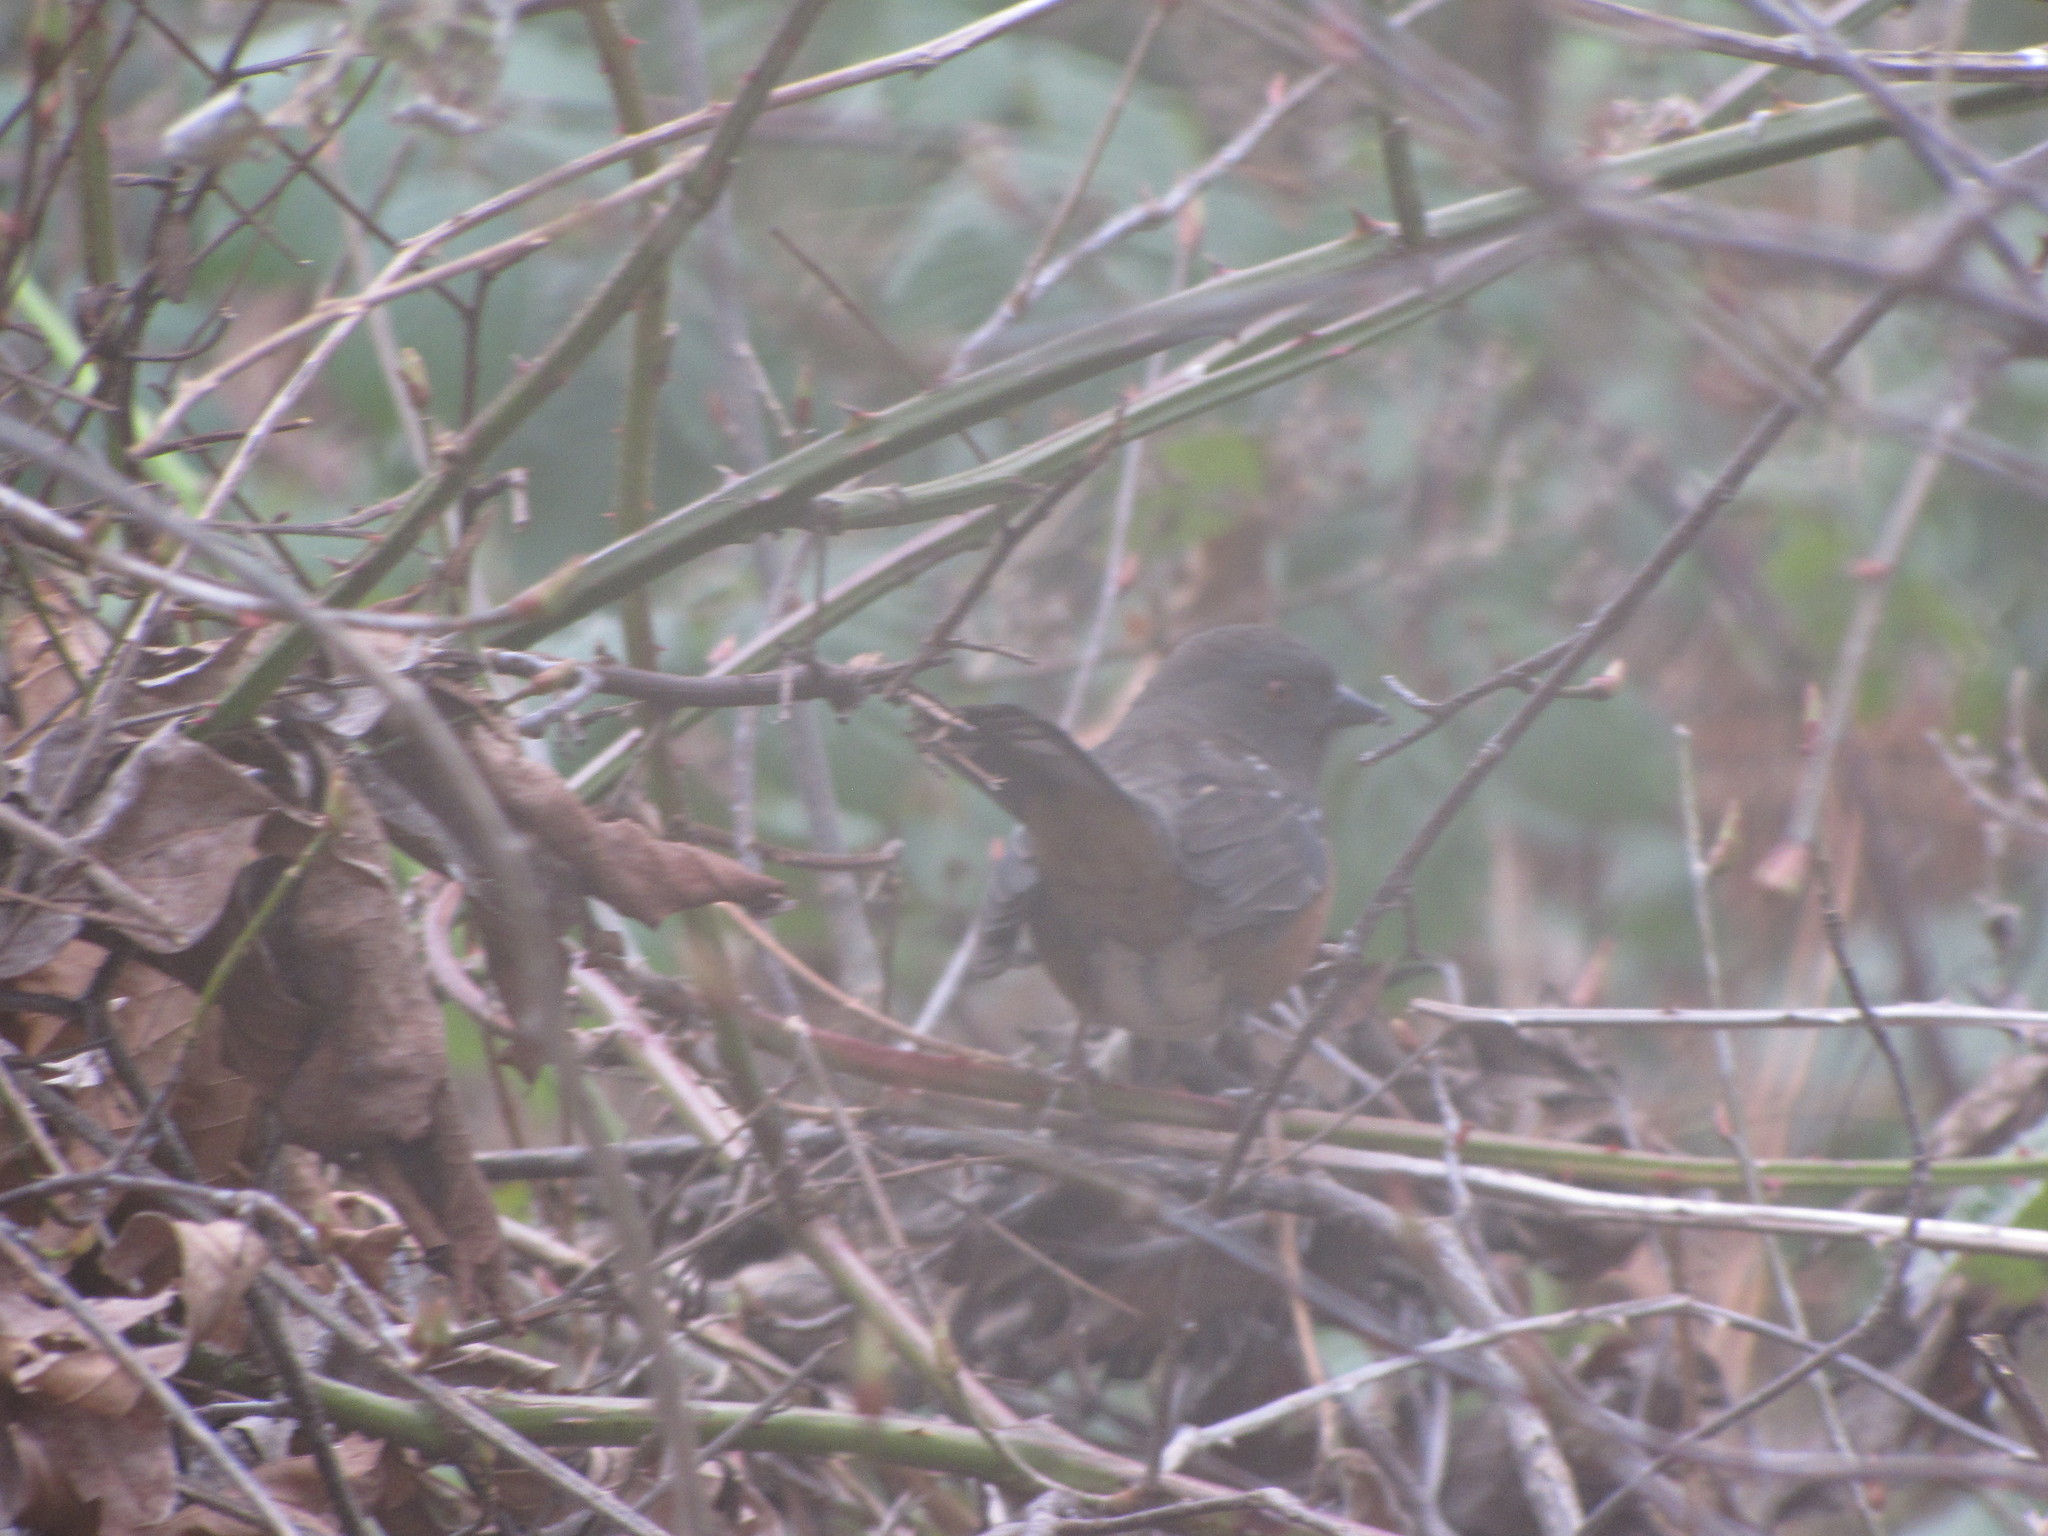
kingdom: Animalia
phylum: Chordata
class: Aves
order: Passeriformes
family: Passerellidae
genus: Pipilo
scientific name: Pipilo maculatus
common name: Spotted towhee
